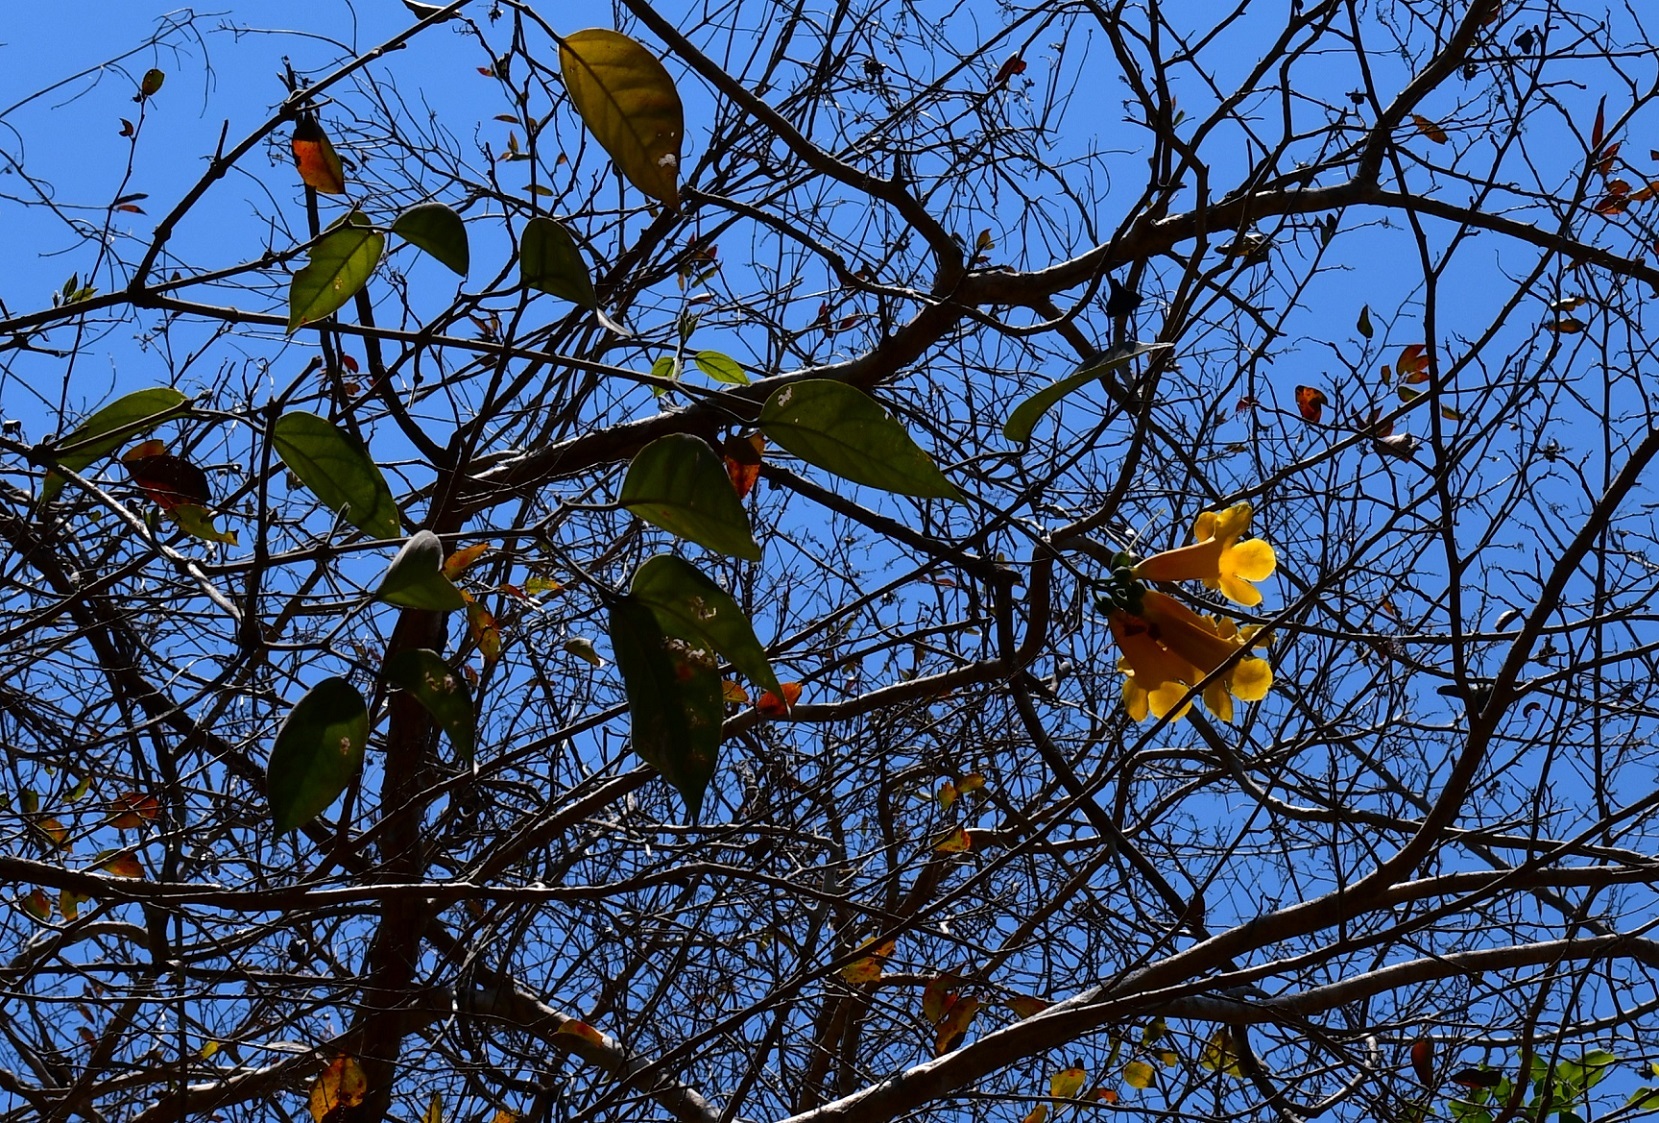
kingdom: Plantae
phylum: Tracheophyta
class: Magnoliopsida
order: Lamiales
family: Bignoniaceae
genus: Anemopaegma
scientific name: Anemopaegma chrysanthum
